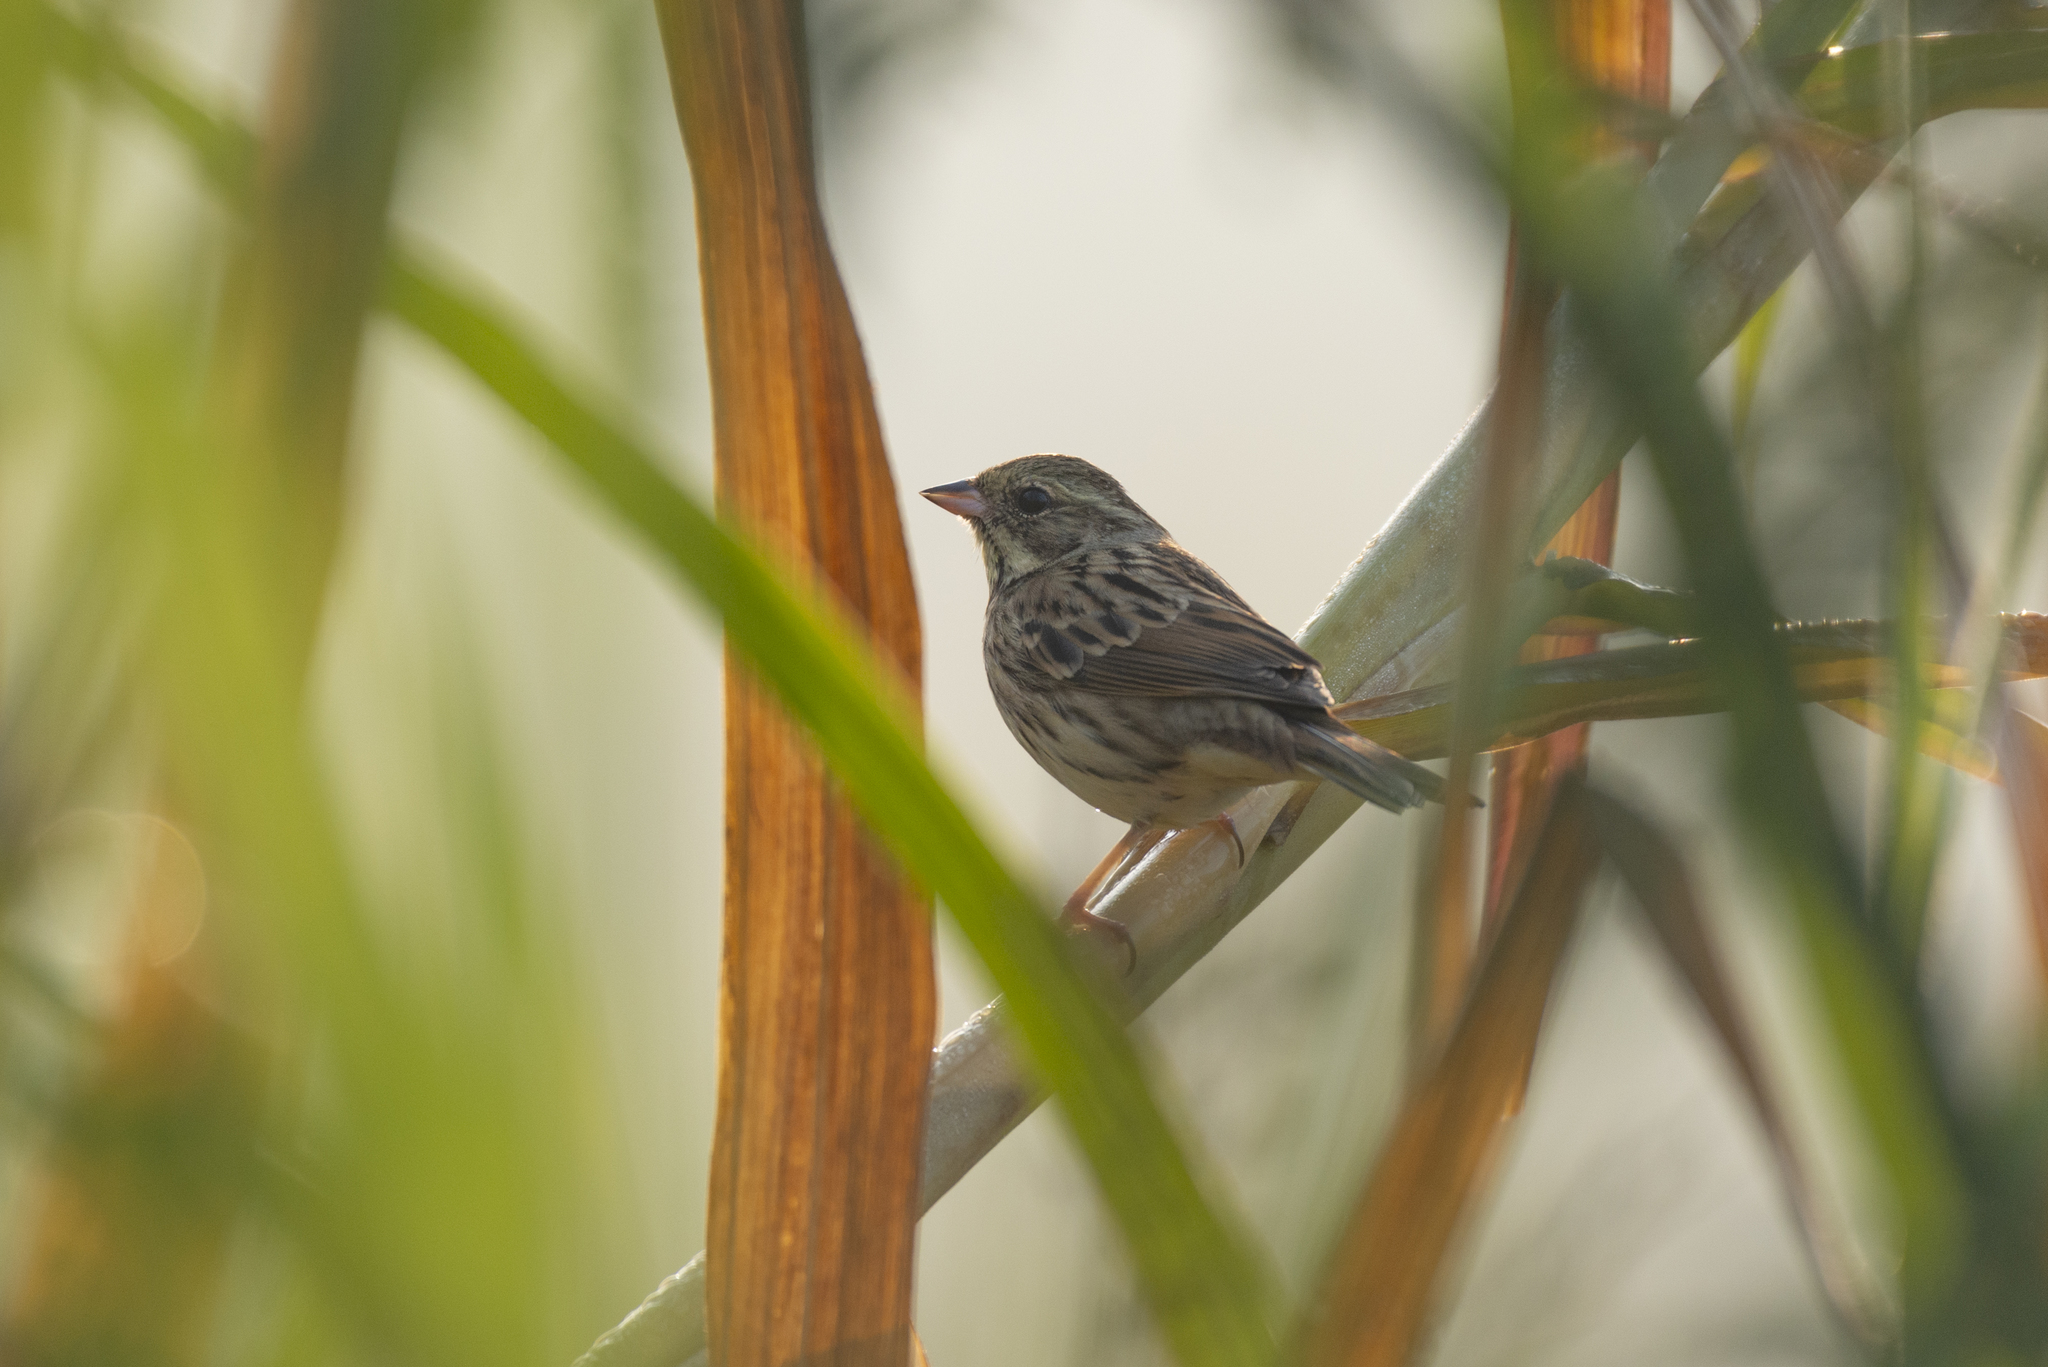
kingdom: Animalia
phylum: Chordata
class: Aves
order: Passeriformes
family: Emberizidae
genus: Emberiza
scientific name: Emberiza spodocephala
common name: Black-faced bunting
